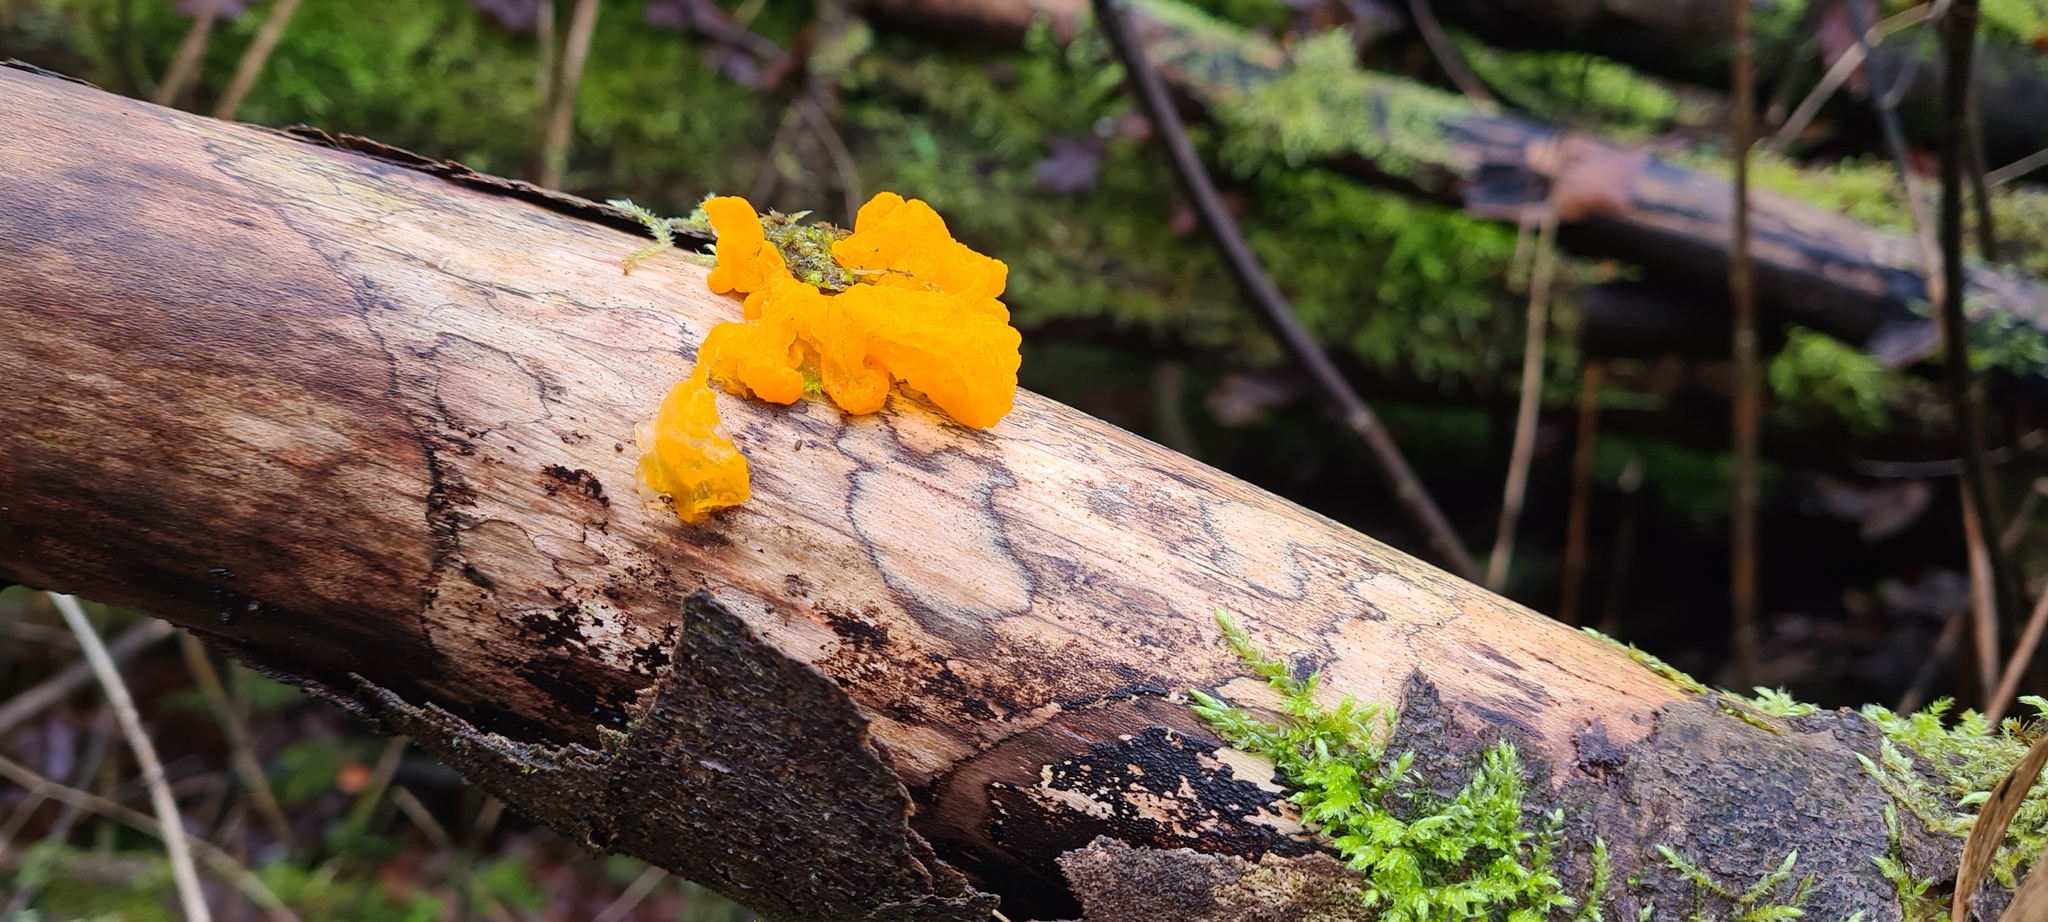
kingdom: Fungi
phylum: Basidiomycota
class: Tremellomycetes
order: Tremellales
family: Tremellaceae
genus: Tremella
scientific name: Tremella mesenterica
